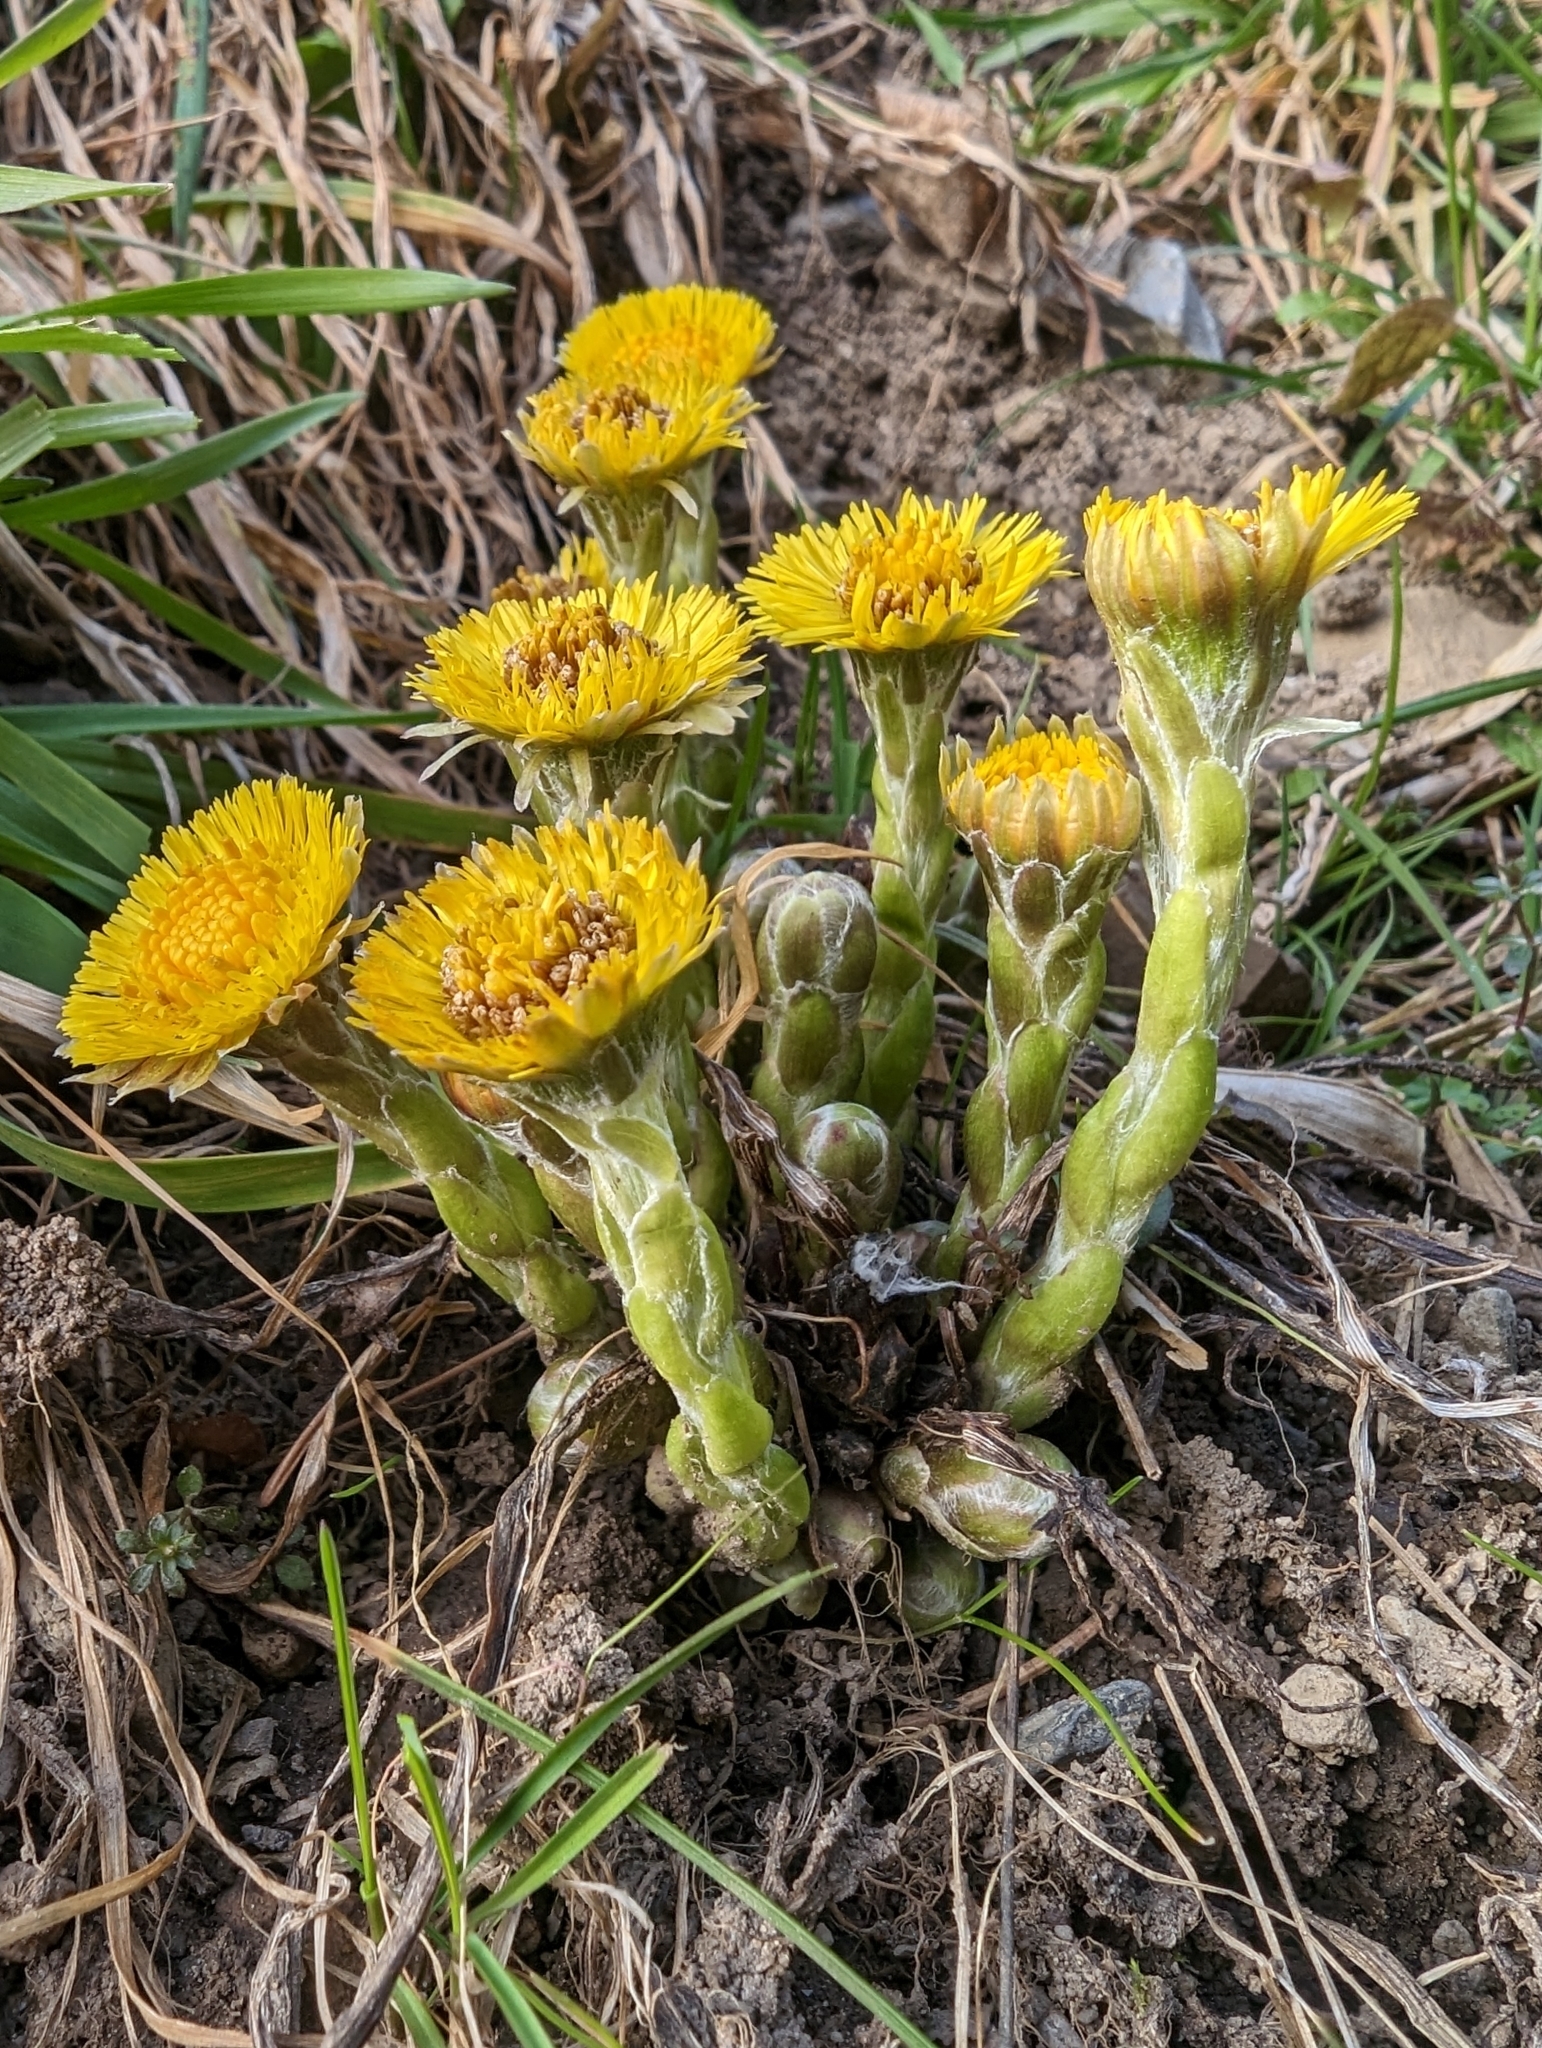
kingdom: Plantae
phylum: Tracheophyta
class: Magnoliopsida
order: Asterales
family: Asteraceae
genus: Tussilago
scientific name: Tussilago farfara
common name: Coltsfoot
